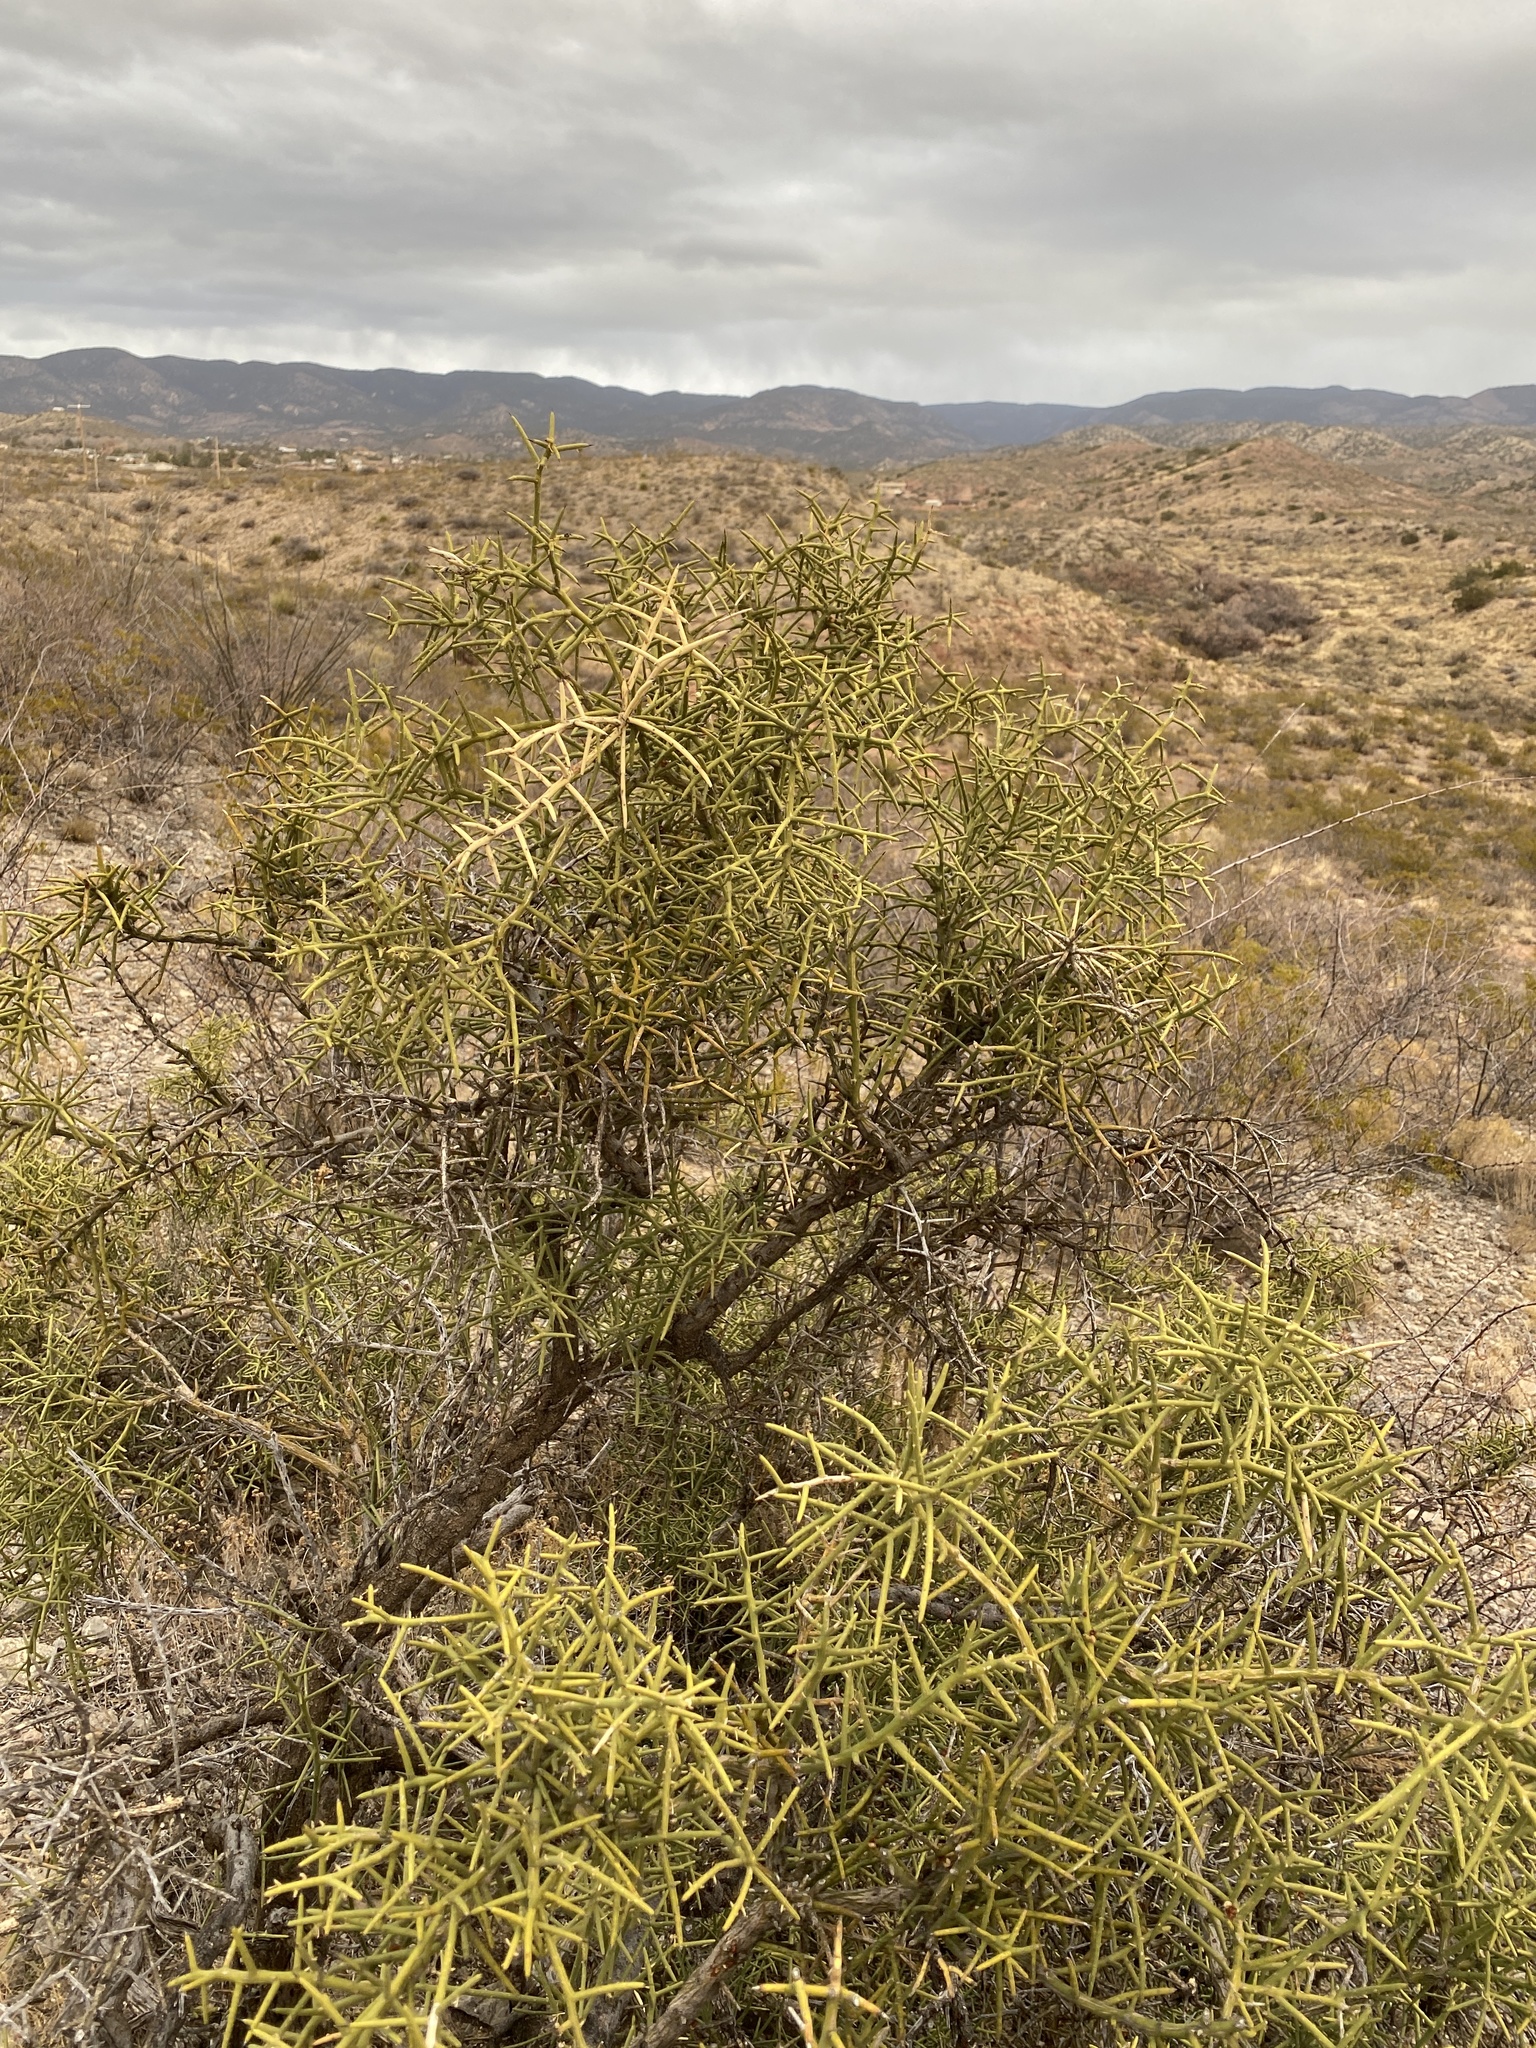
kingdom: Plantae
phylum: Tracheophyta
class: Magnoliopsida
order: Brassicales
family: Koeberliniaceae
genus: Koeberlinia
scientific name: Koeberlinia spinosa
